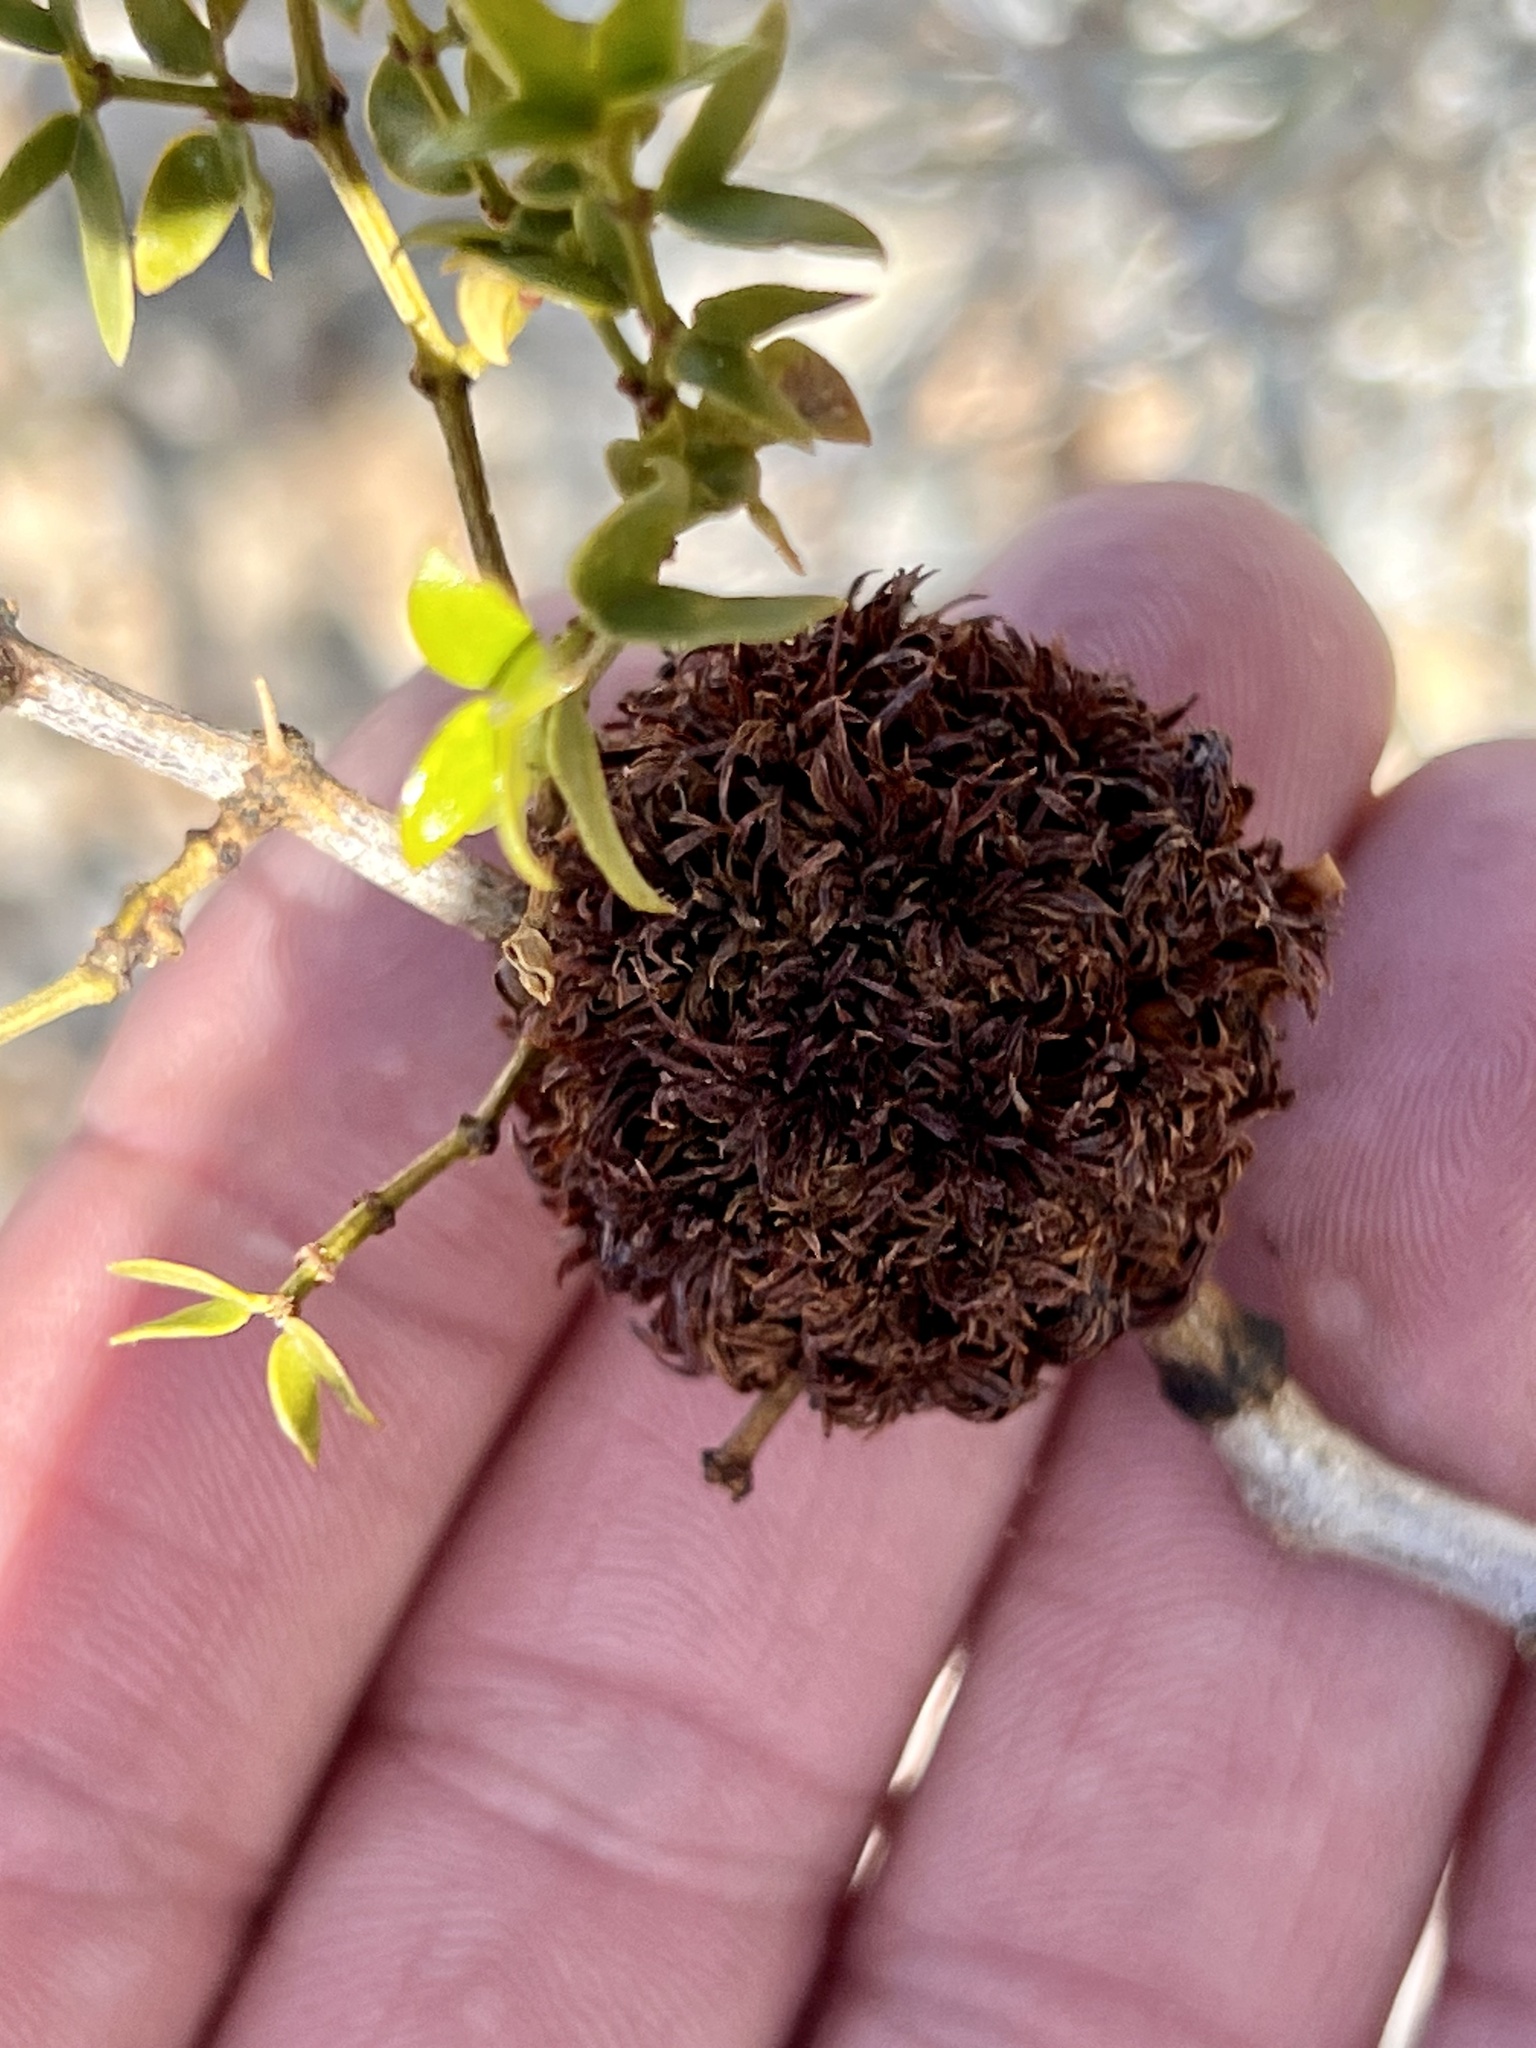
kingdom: Animalia
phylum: Arthropoda
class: Insecta
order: Diptera
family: Cecidomyiidae
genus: Asphondylia
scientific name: Asphondylia auripila
